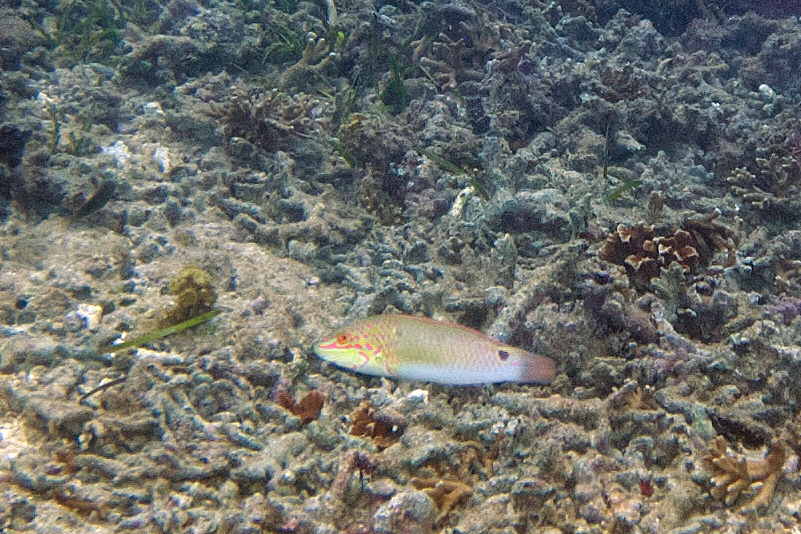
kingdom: Animalia
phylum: Chordata
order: Perciformes
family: Labridae
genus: Halichoeres
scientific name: Halichoeres trimaculatus
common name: Three-spot wrasse
